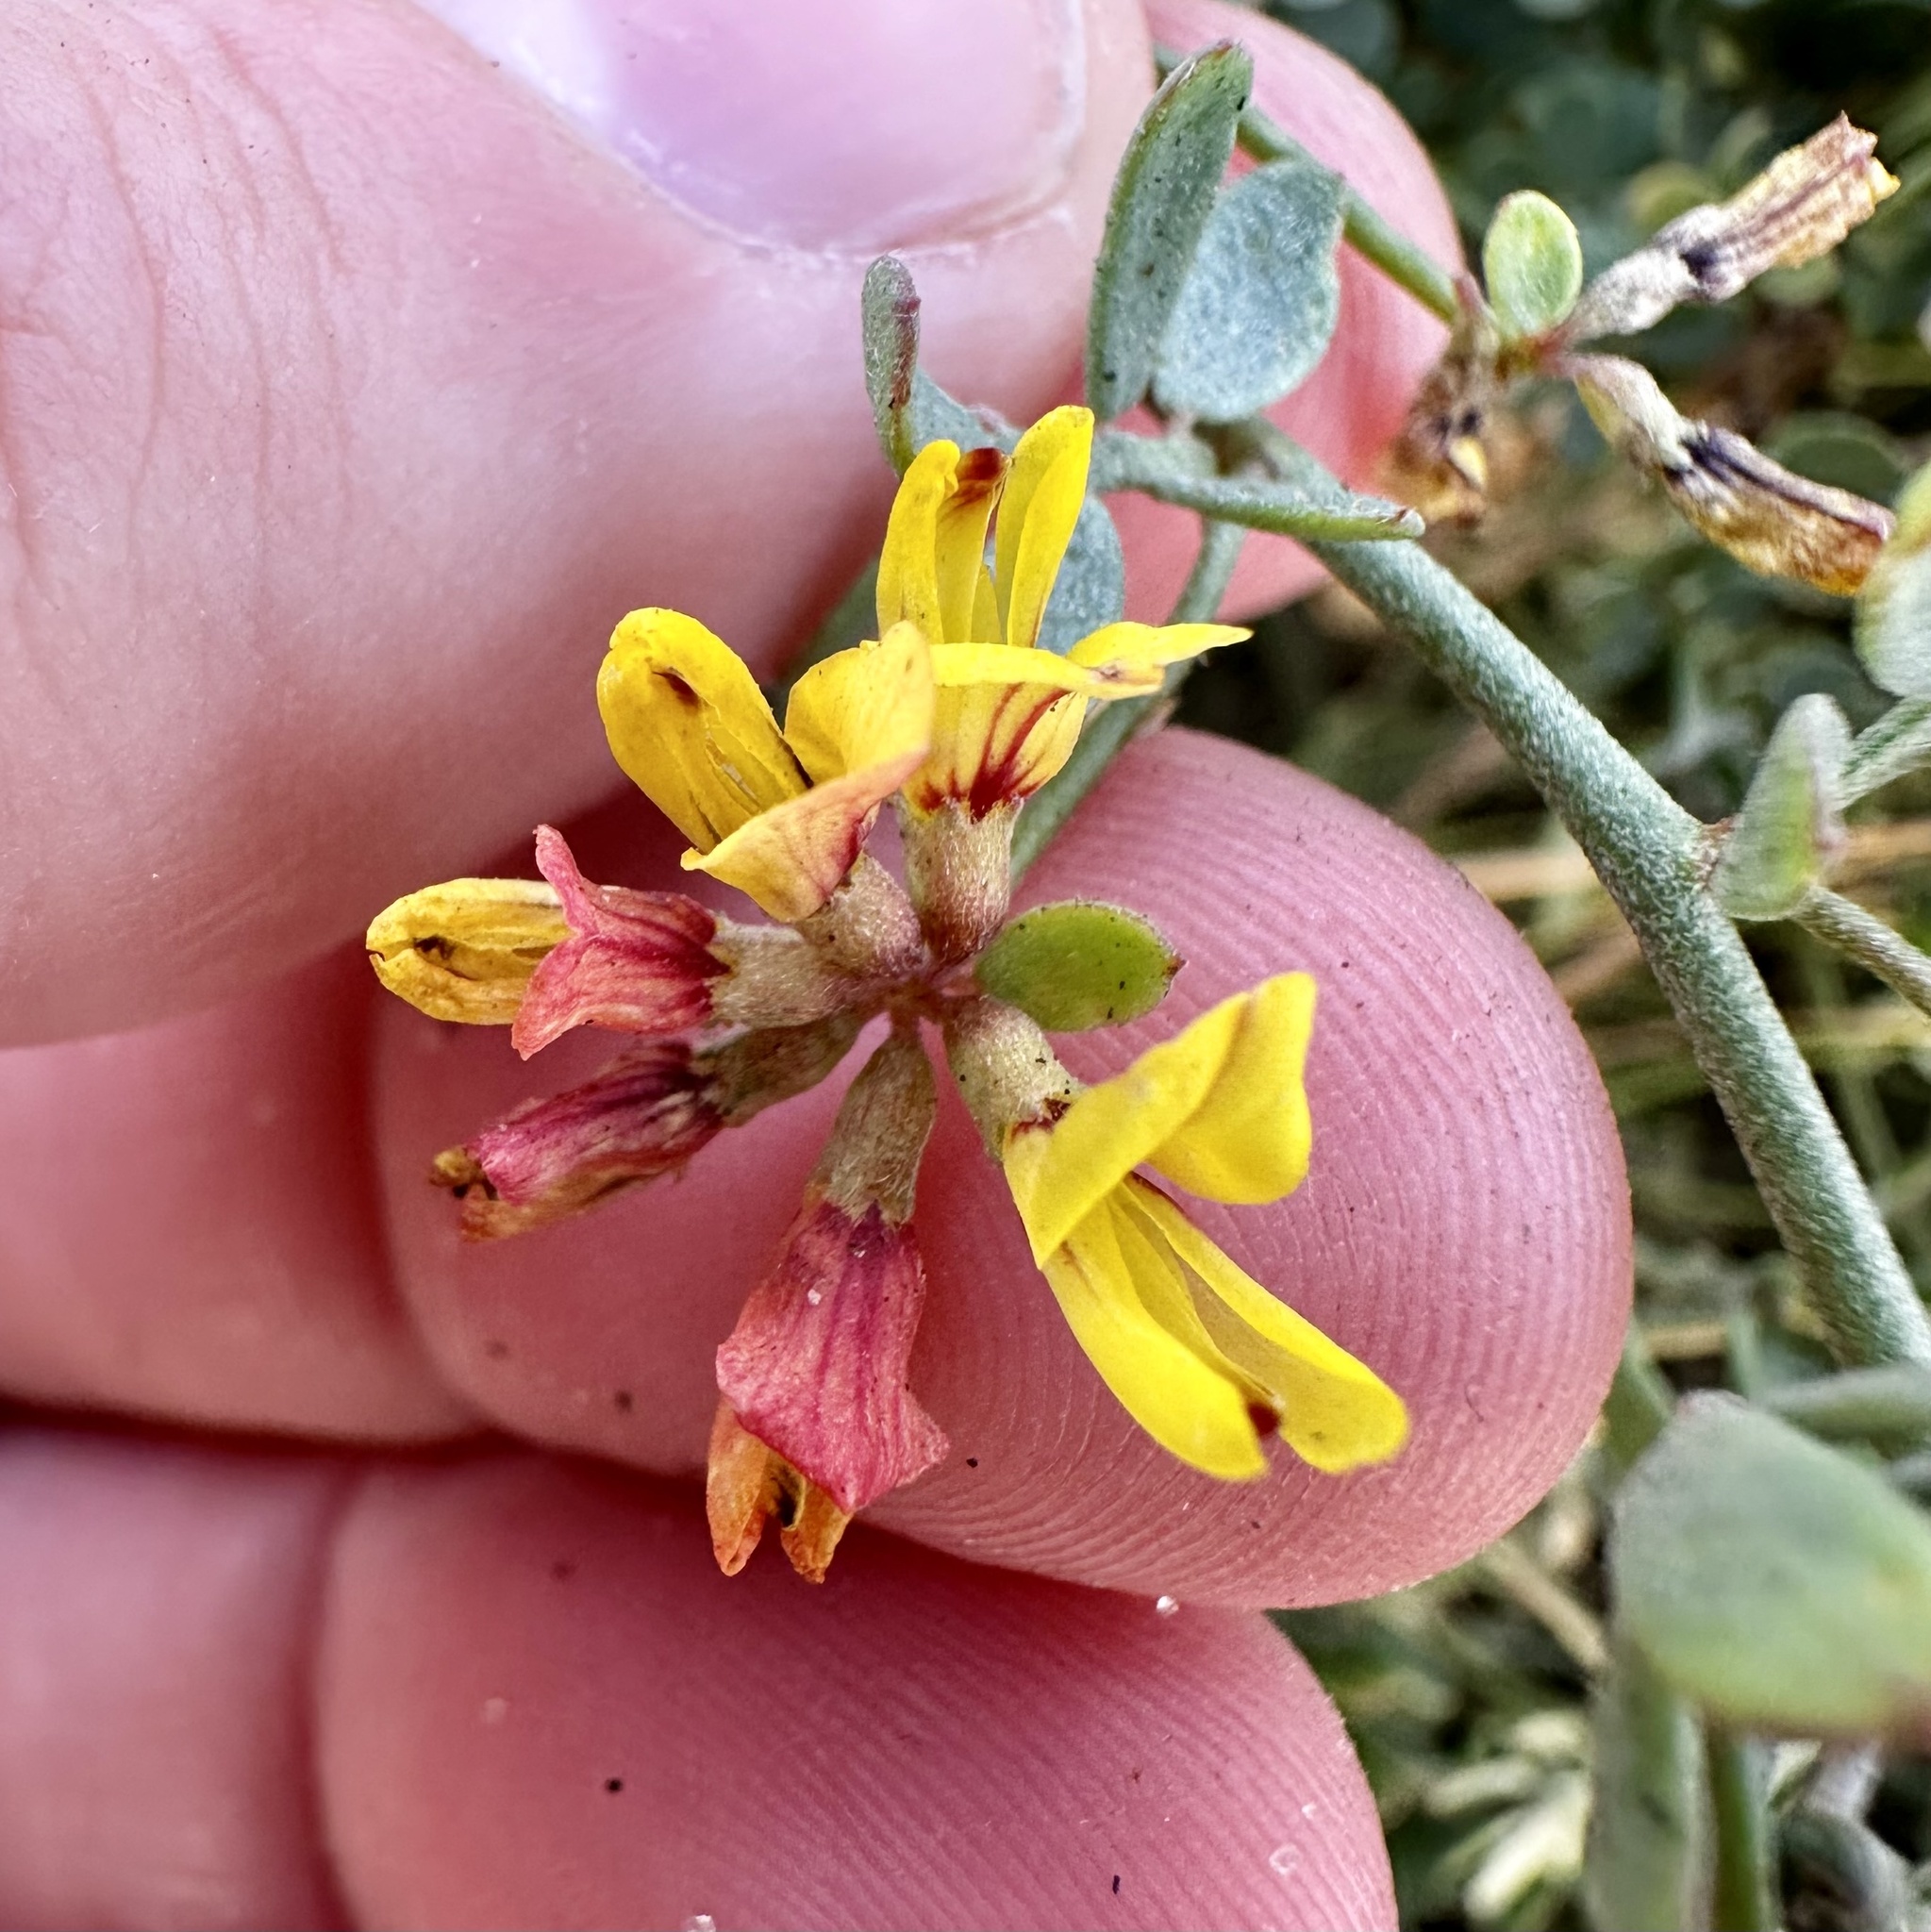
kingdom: Plantae
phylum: Tracheophyta
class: Magnoliopsida
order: Fabales
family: Fabaceae
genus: Acmispon
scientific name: Acmispon prostratus
